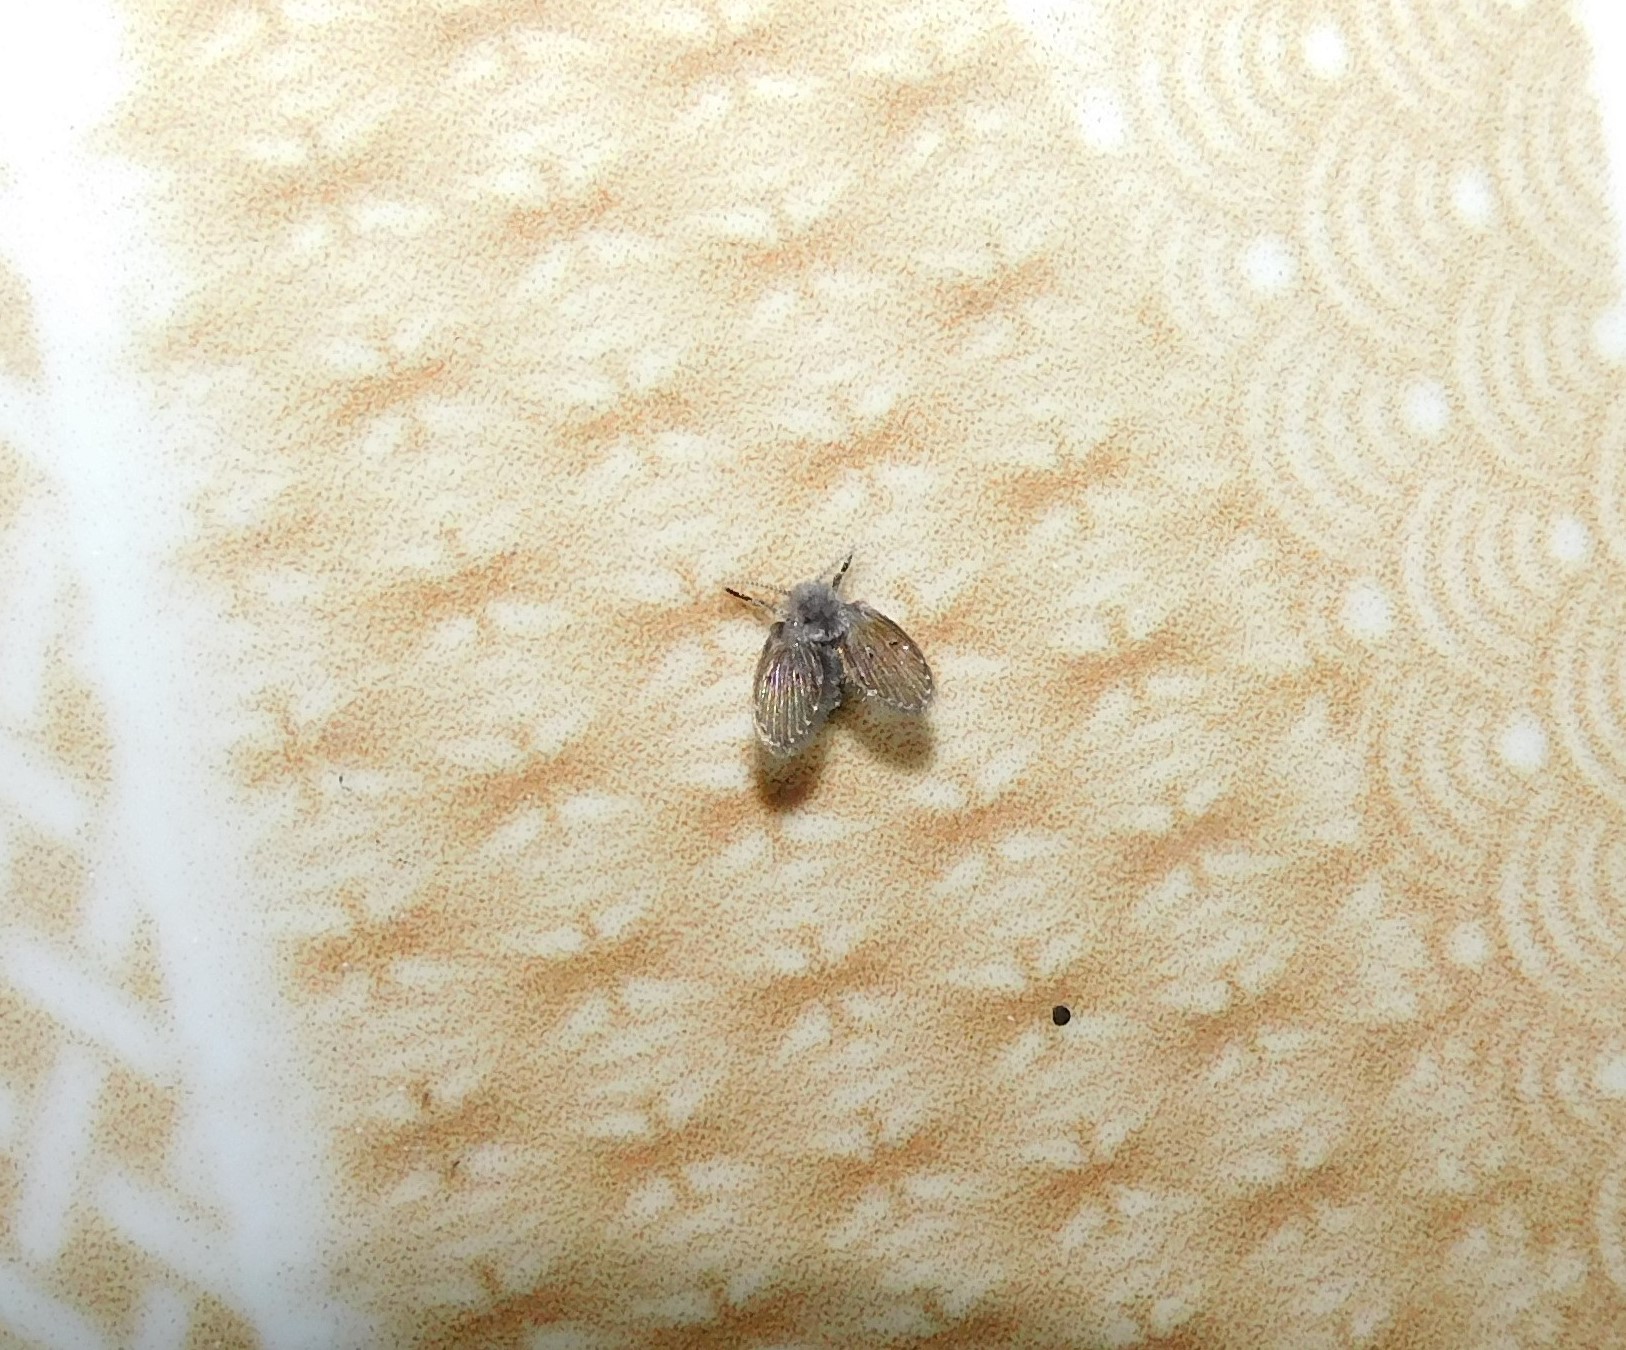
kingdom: Animalia
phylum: Arthropoda
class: Insecta
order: Diptera
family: Psychodidae
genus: Clogmia
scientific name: Clogmia albipunctatus
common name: White-spotted moth fly
